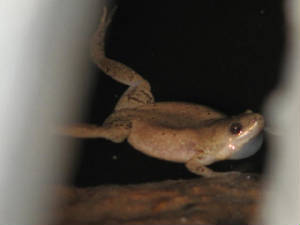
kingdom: Animalia
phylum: Chordata
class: Amphibia
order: Anura
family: Microhylidae
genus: Gastrophryne
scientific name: Gastrophryne olivacea
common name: Great plains narrow-mouthed toad
